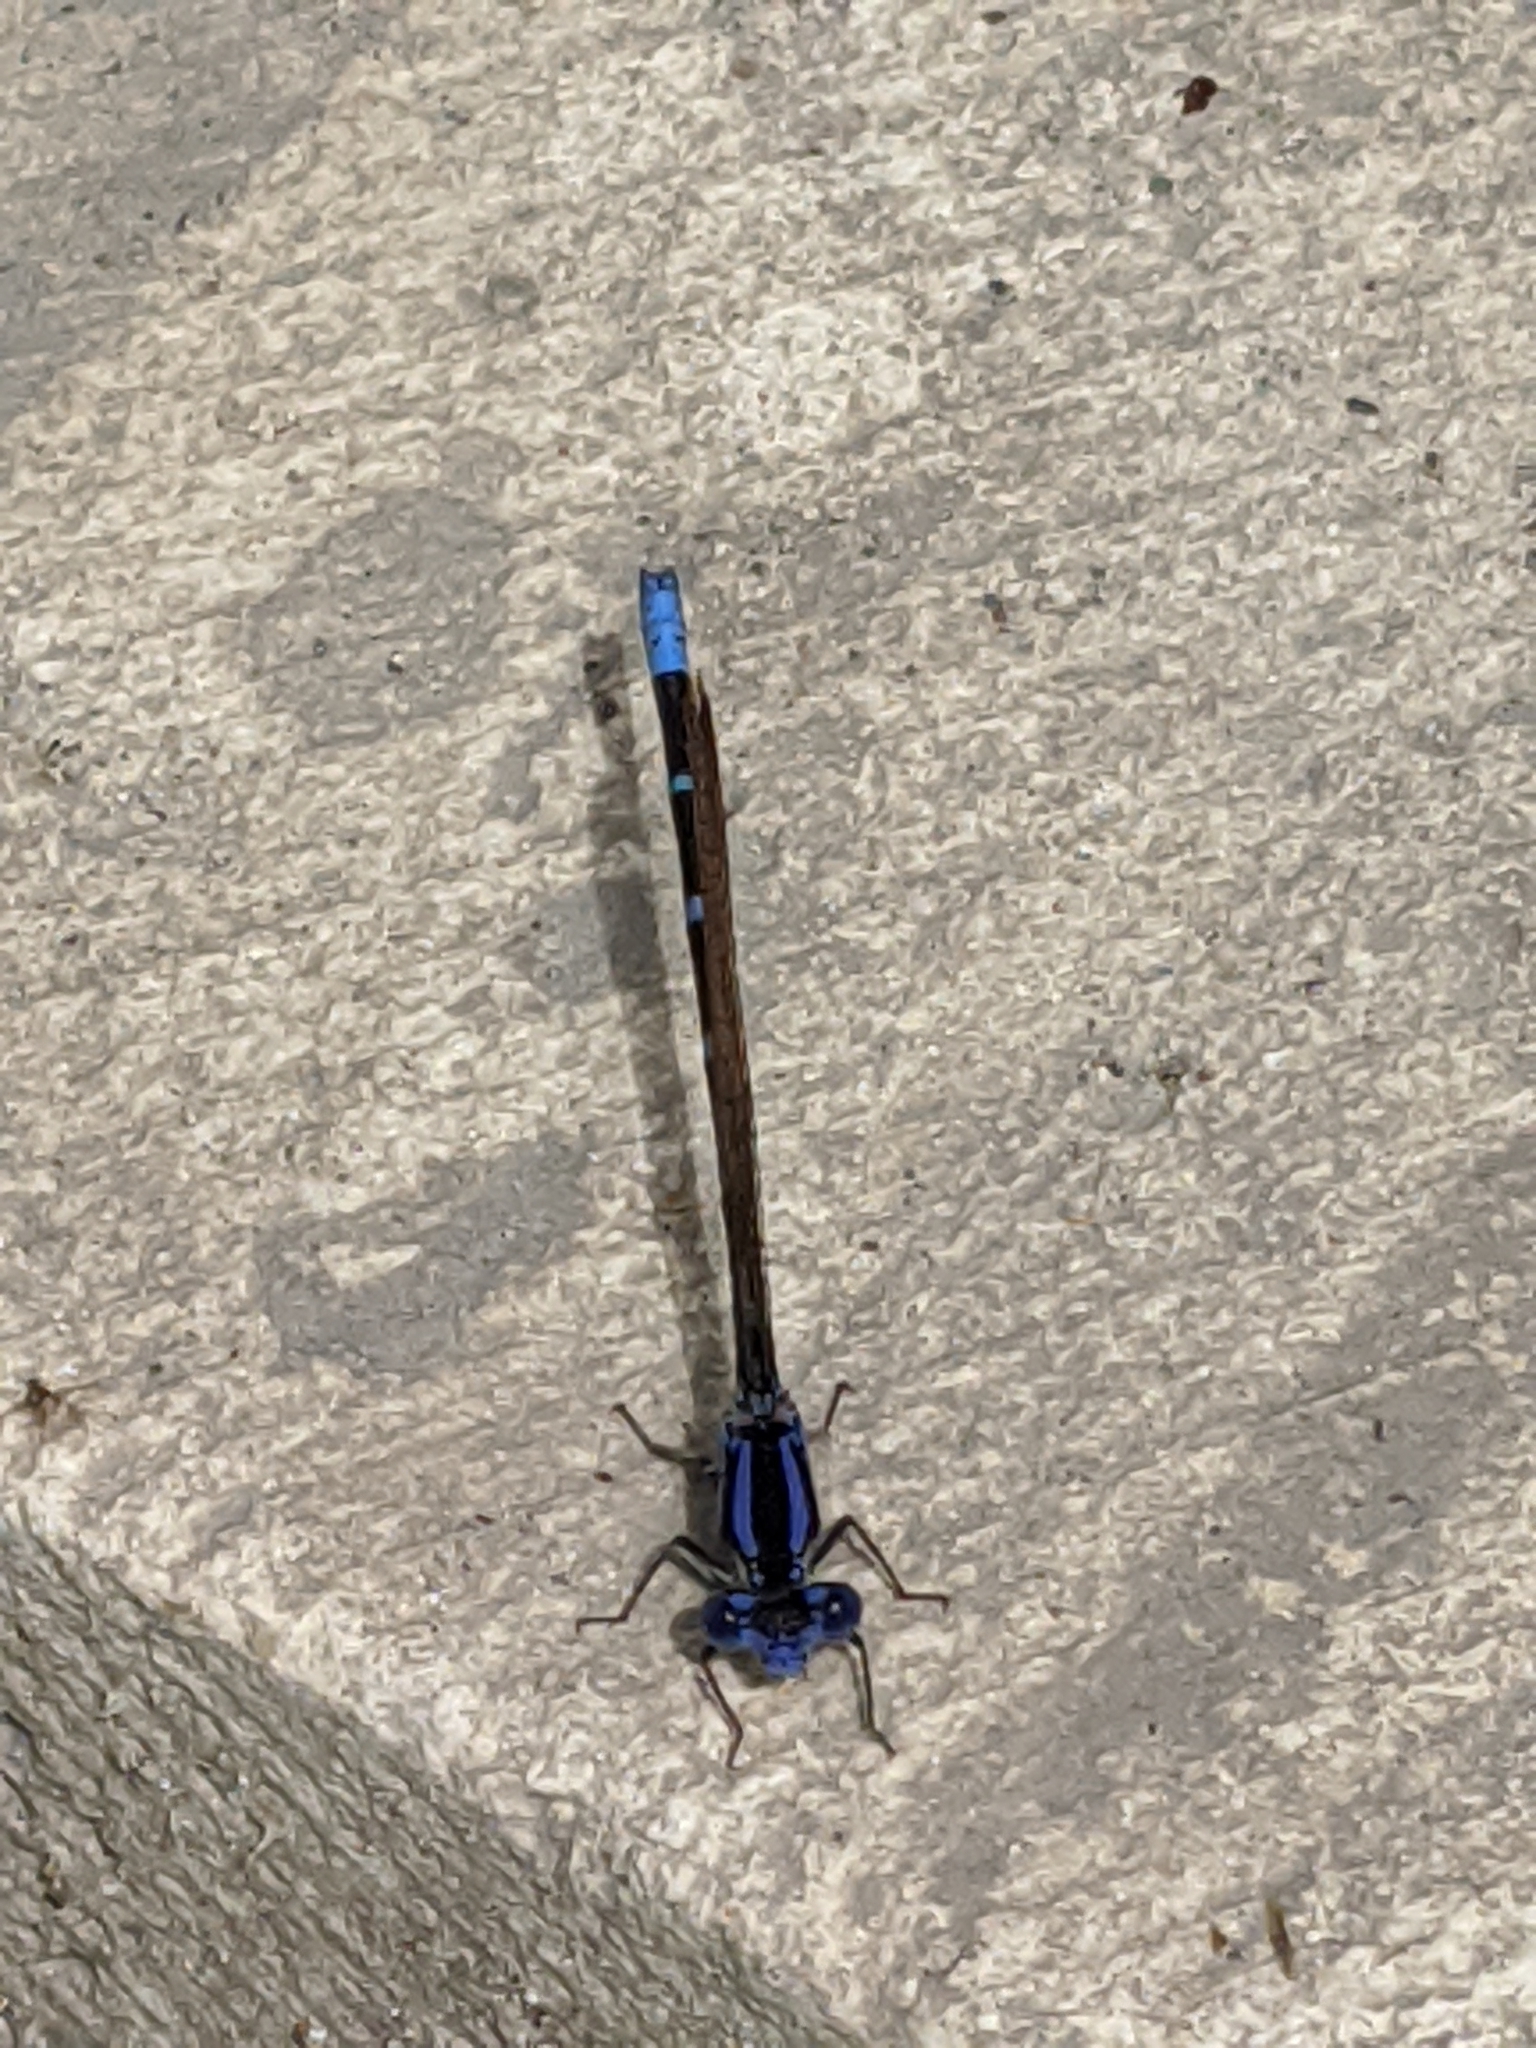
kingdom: Animalia
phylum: Arthropoda
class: Insecta
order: Odonata
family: Coenagrionidae
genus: Argia
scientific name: Argia sedula
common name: Blue-ringed dancer
